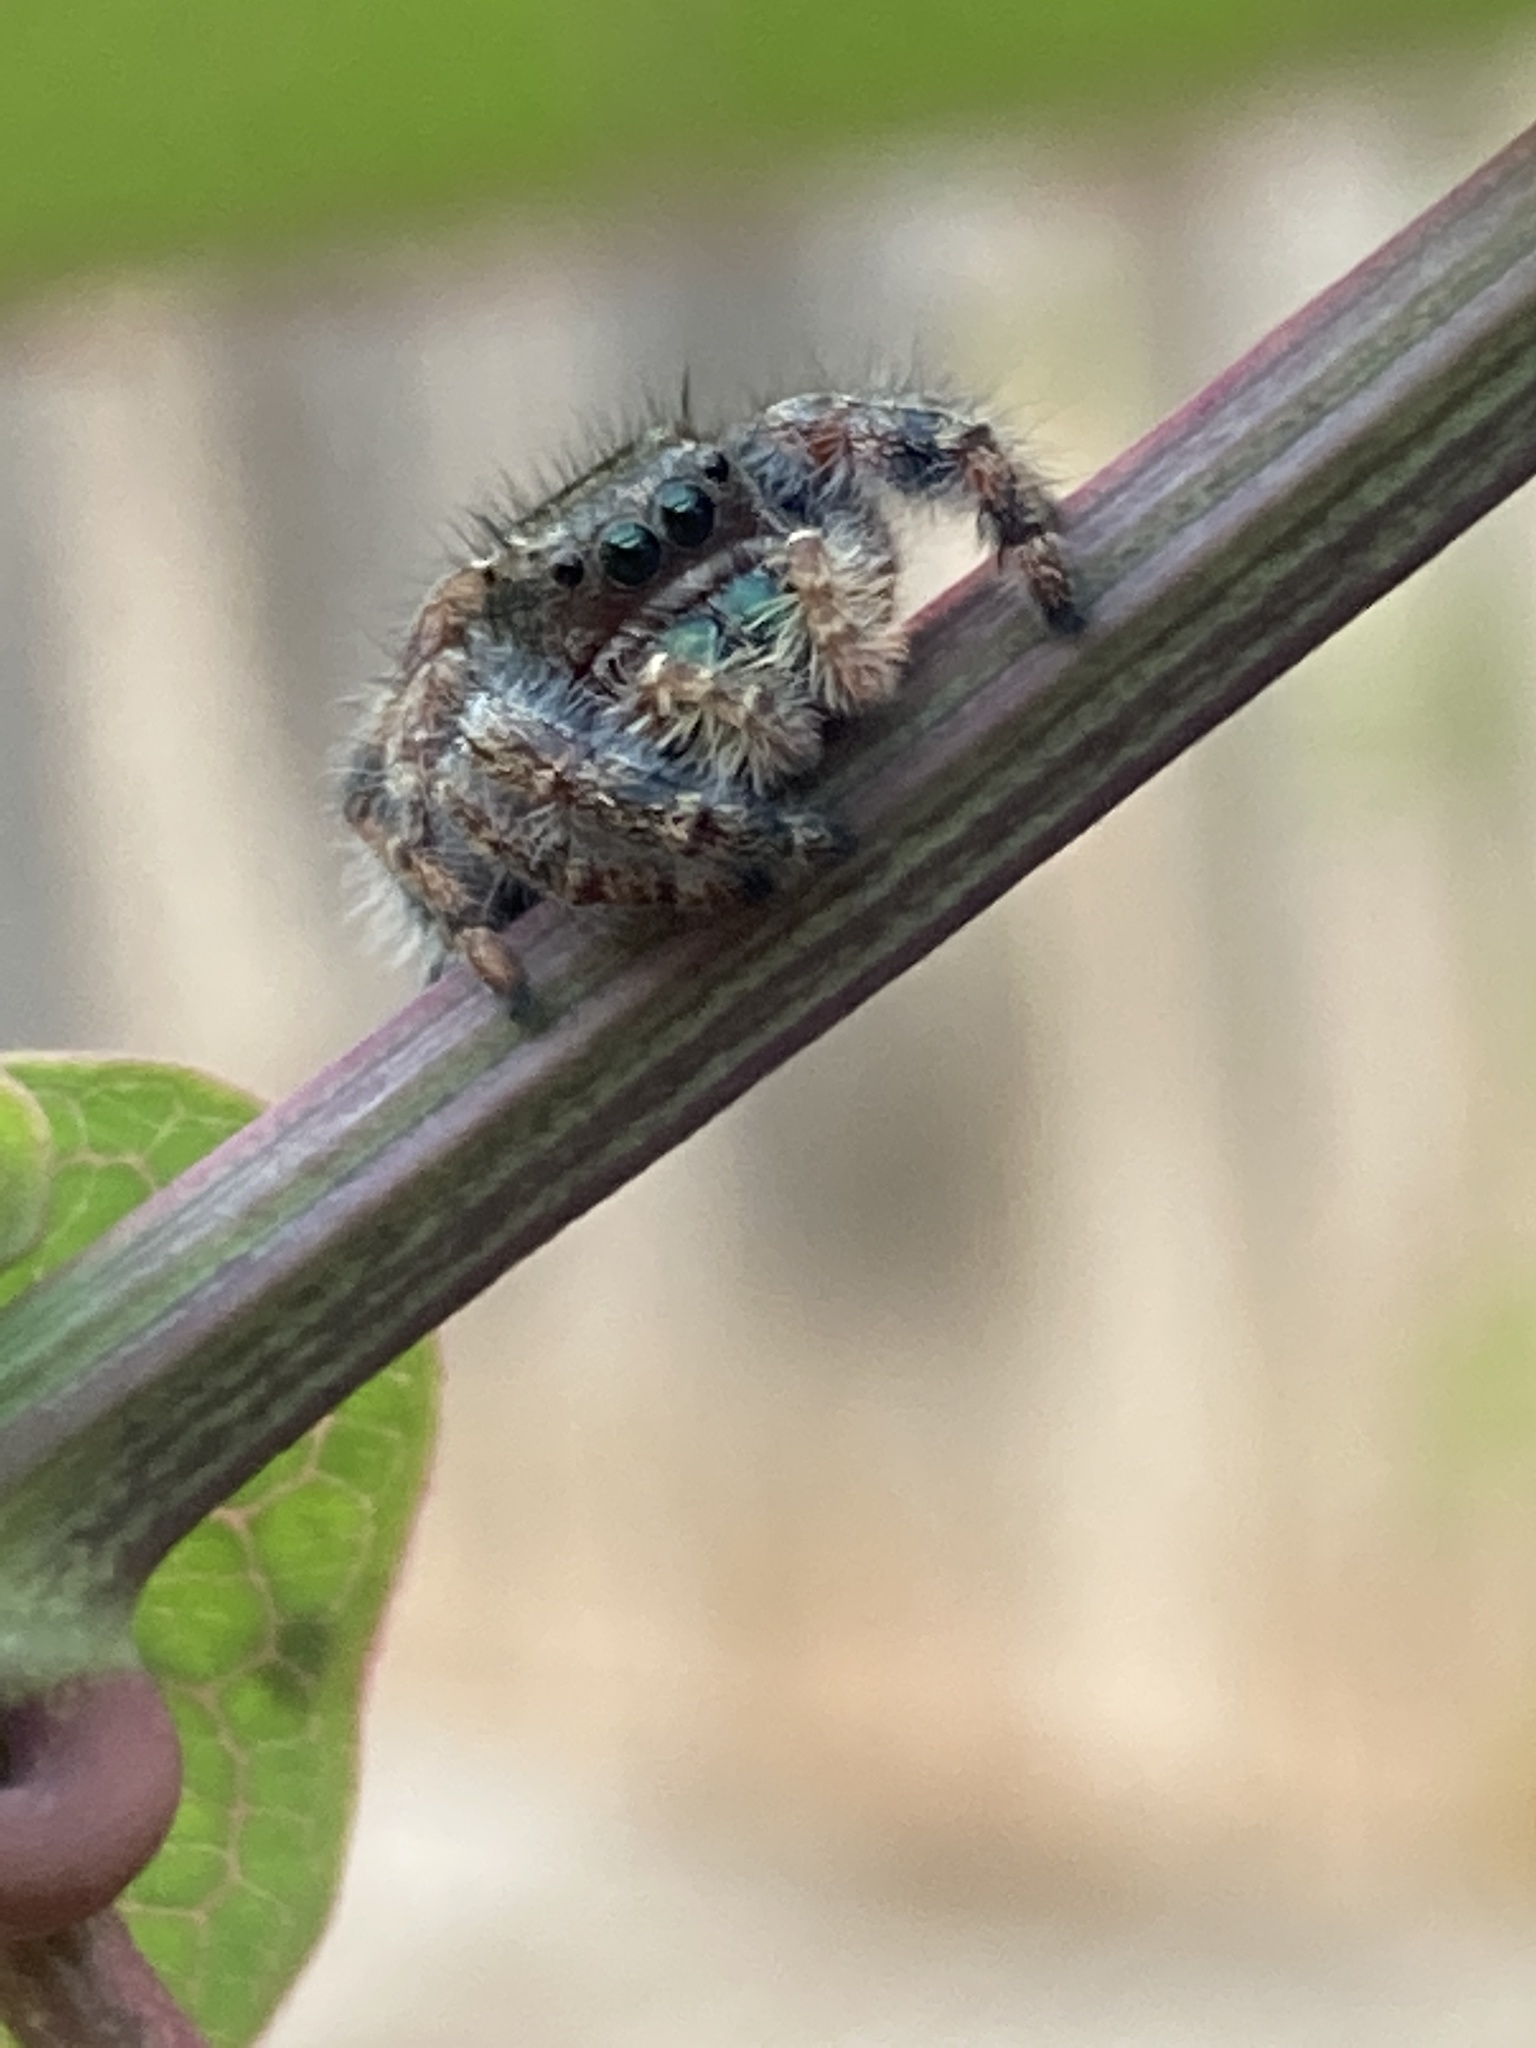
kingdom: Animalia
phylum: Arthropoda
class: Arachnida
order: Araneae
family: Salticidae
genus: Phidippus
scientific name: Phidippus audax
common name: Bold jumper
